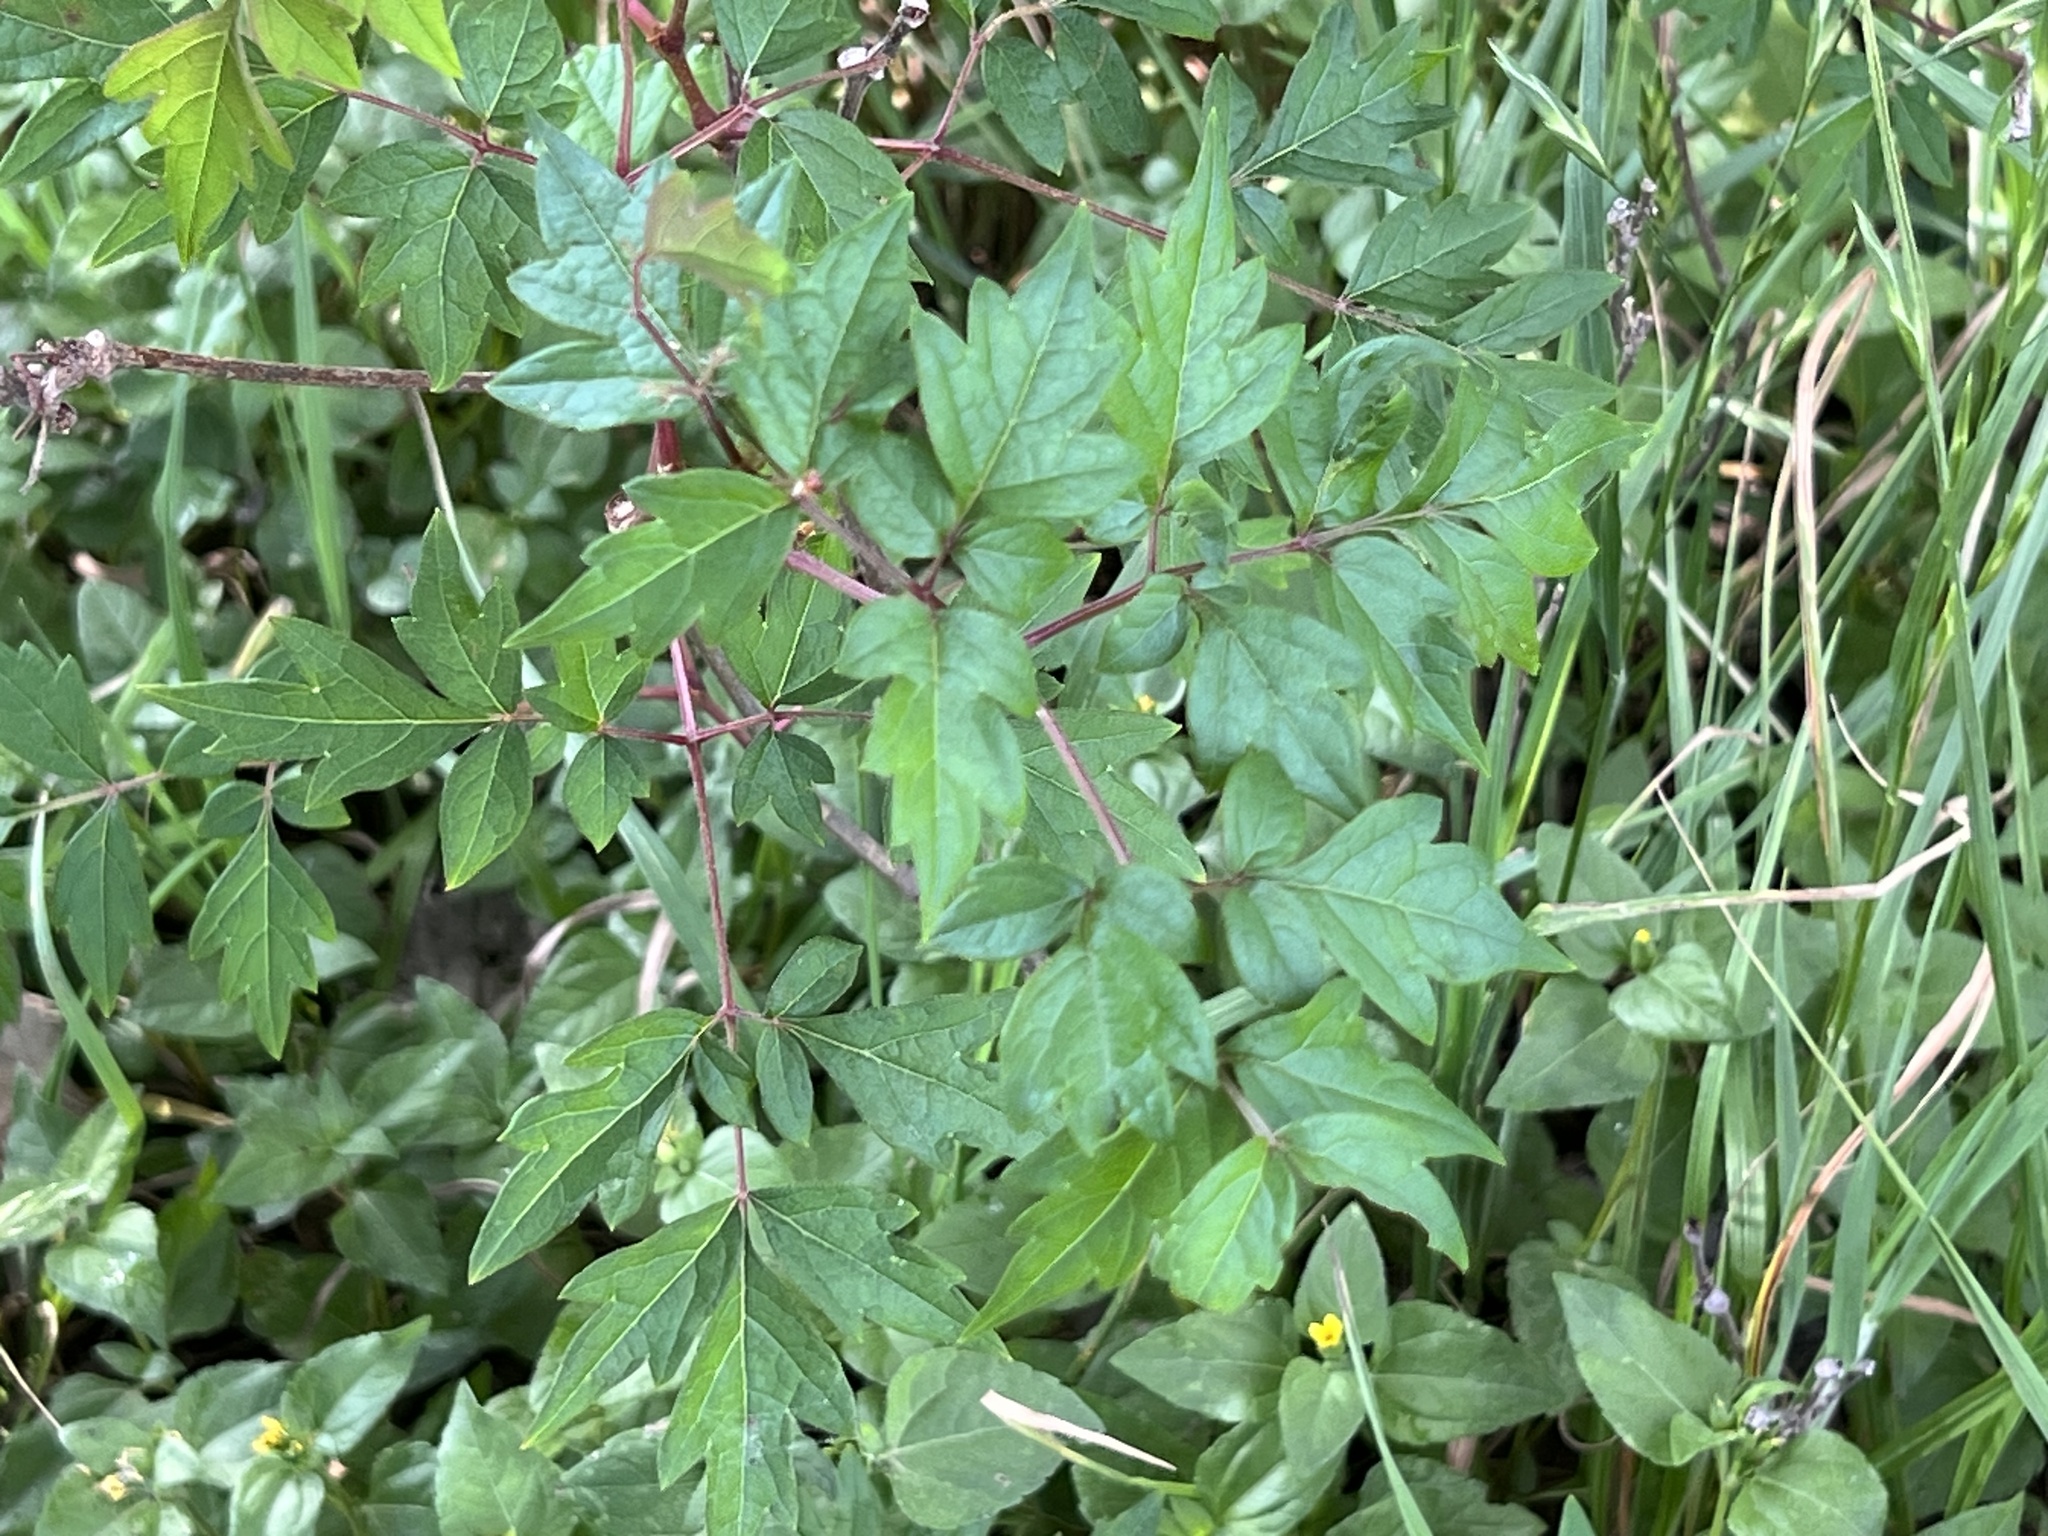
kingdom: Plantae
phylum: Tracheophyta
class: Magnoliopsida
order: Vitales
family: Vitaceae
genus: Nekemias
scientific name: Nekemias arborea
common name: Peppervine
